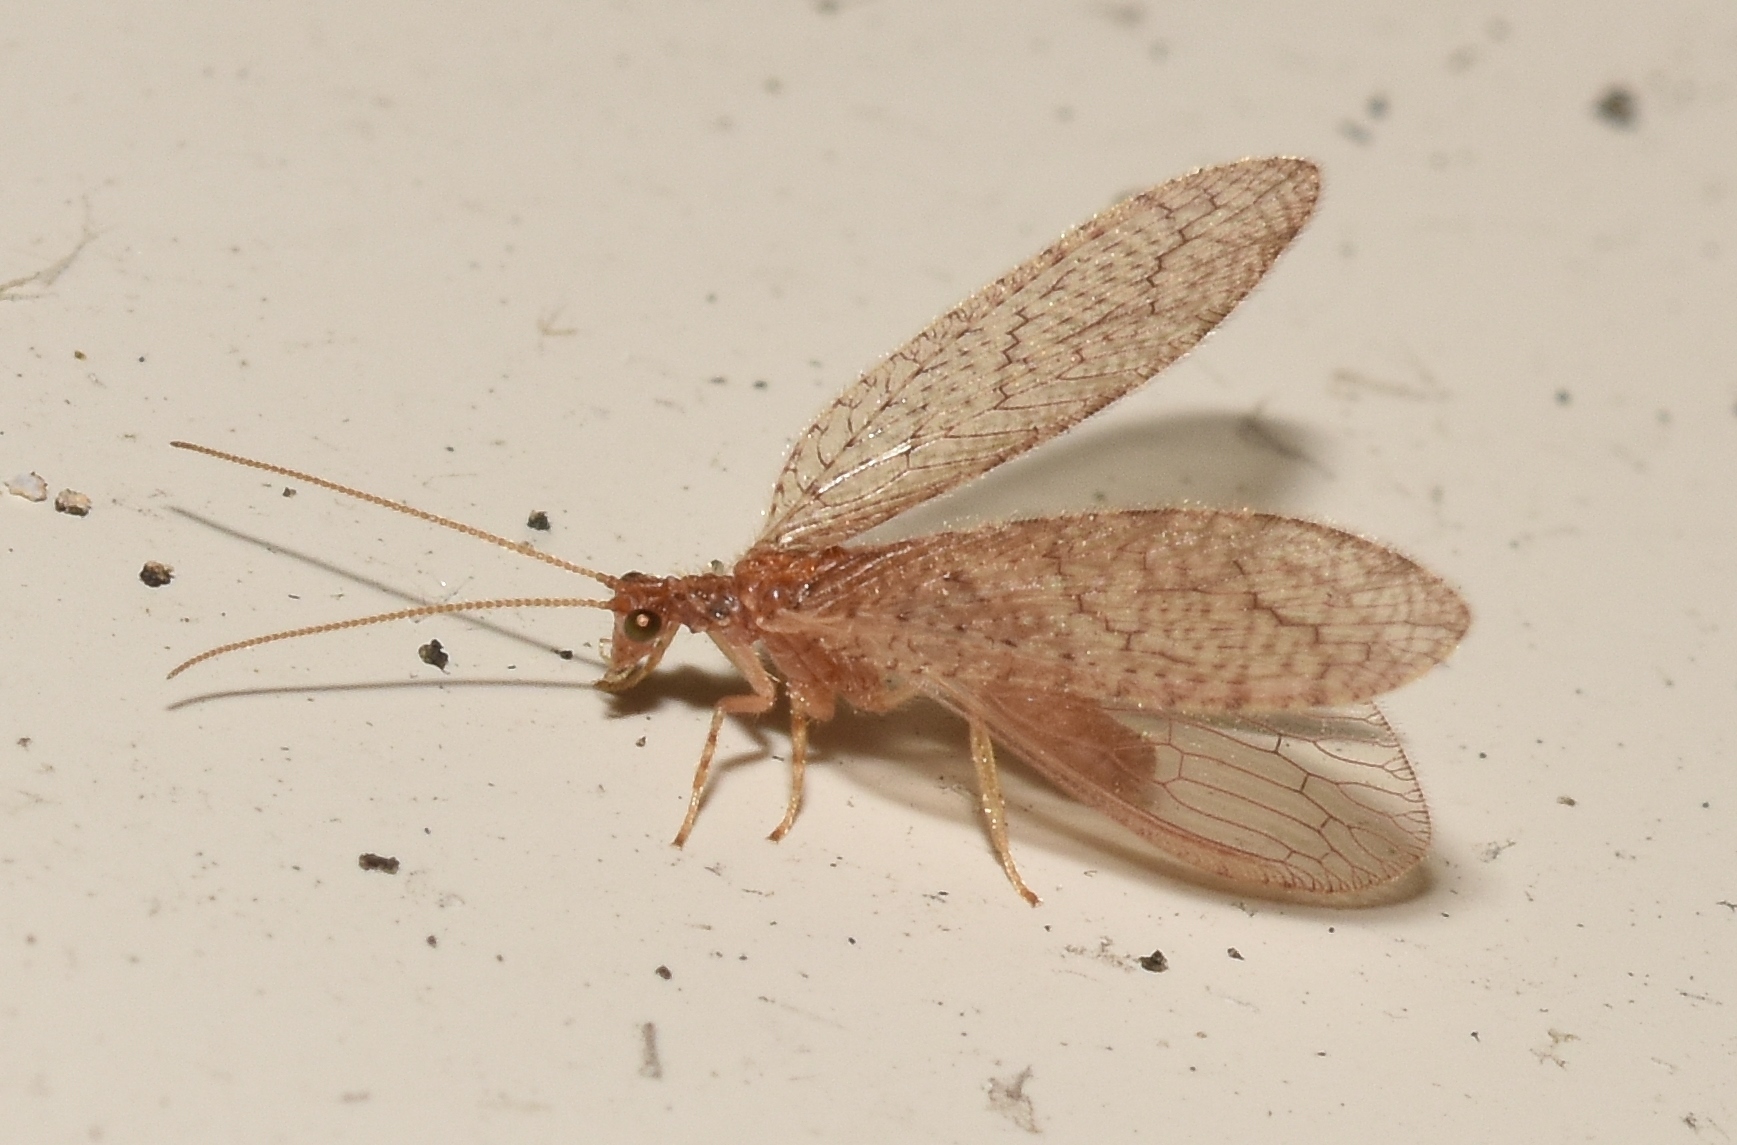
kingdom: Animalia
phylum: Arthropoda
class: Insecta
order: Neuroptera
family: Hemerobiidae
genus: Micromus
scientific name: Micromus posticus
